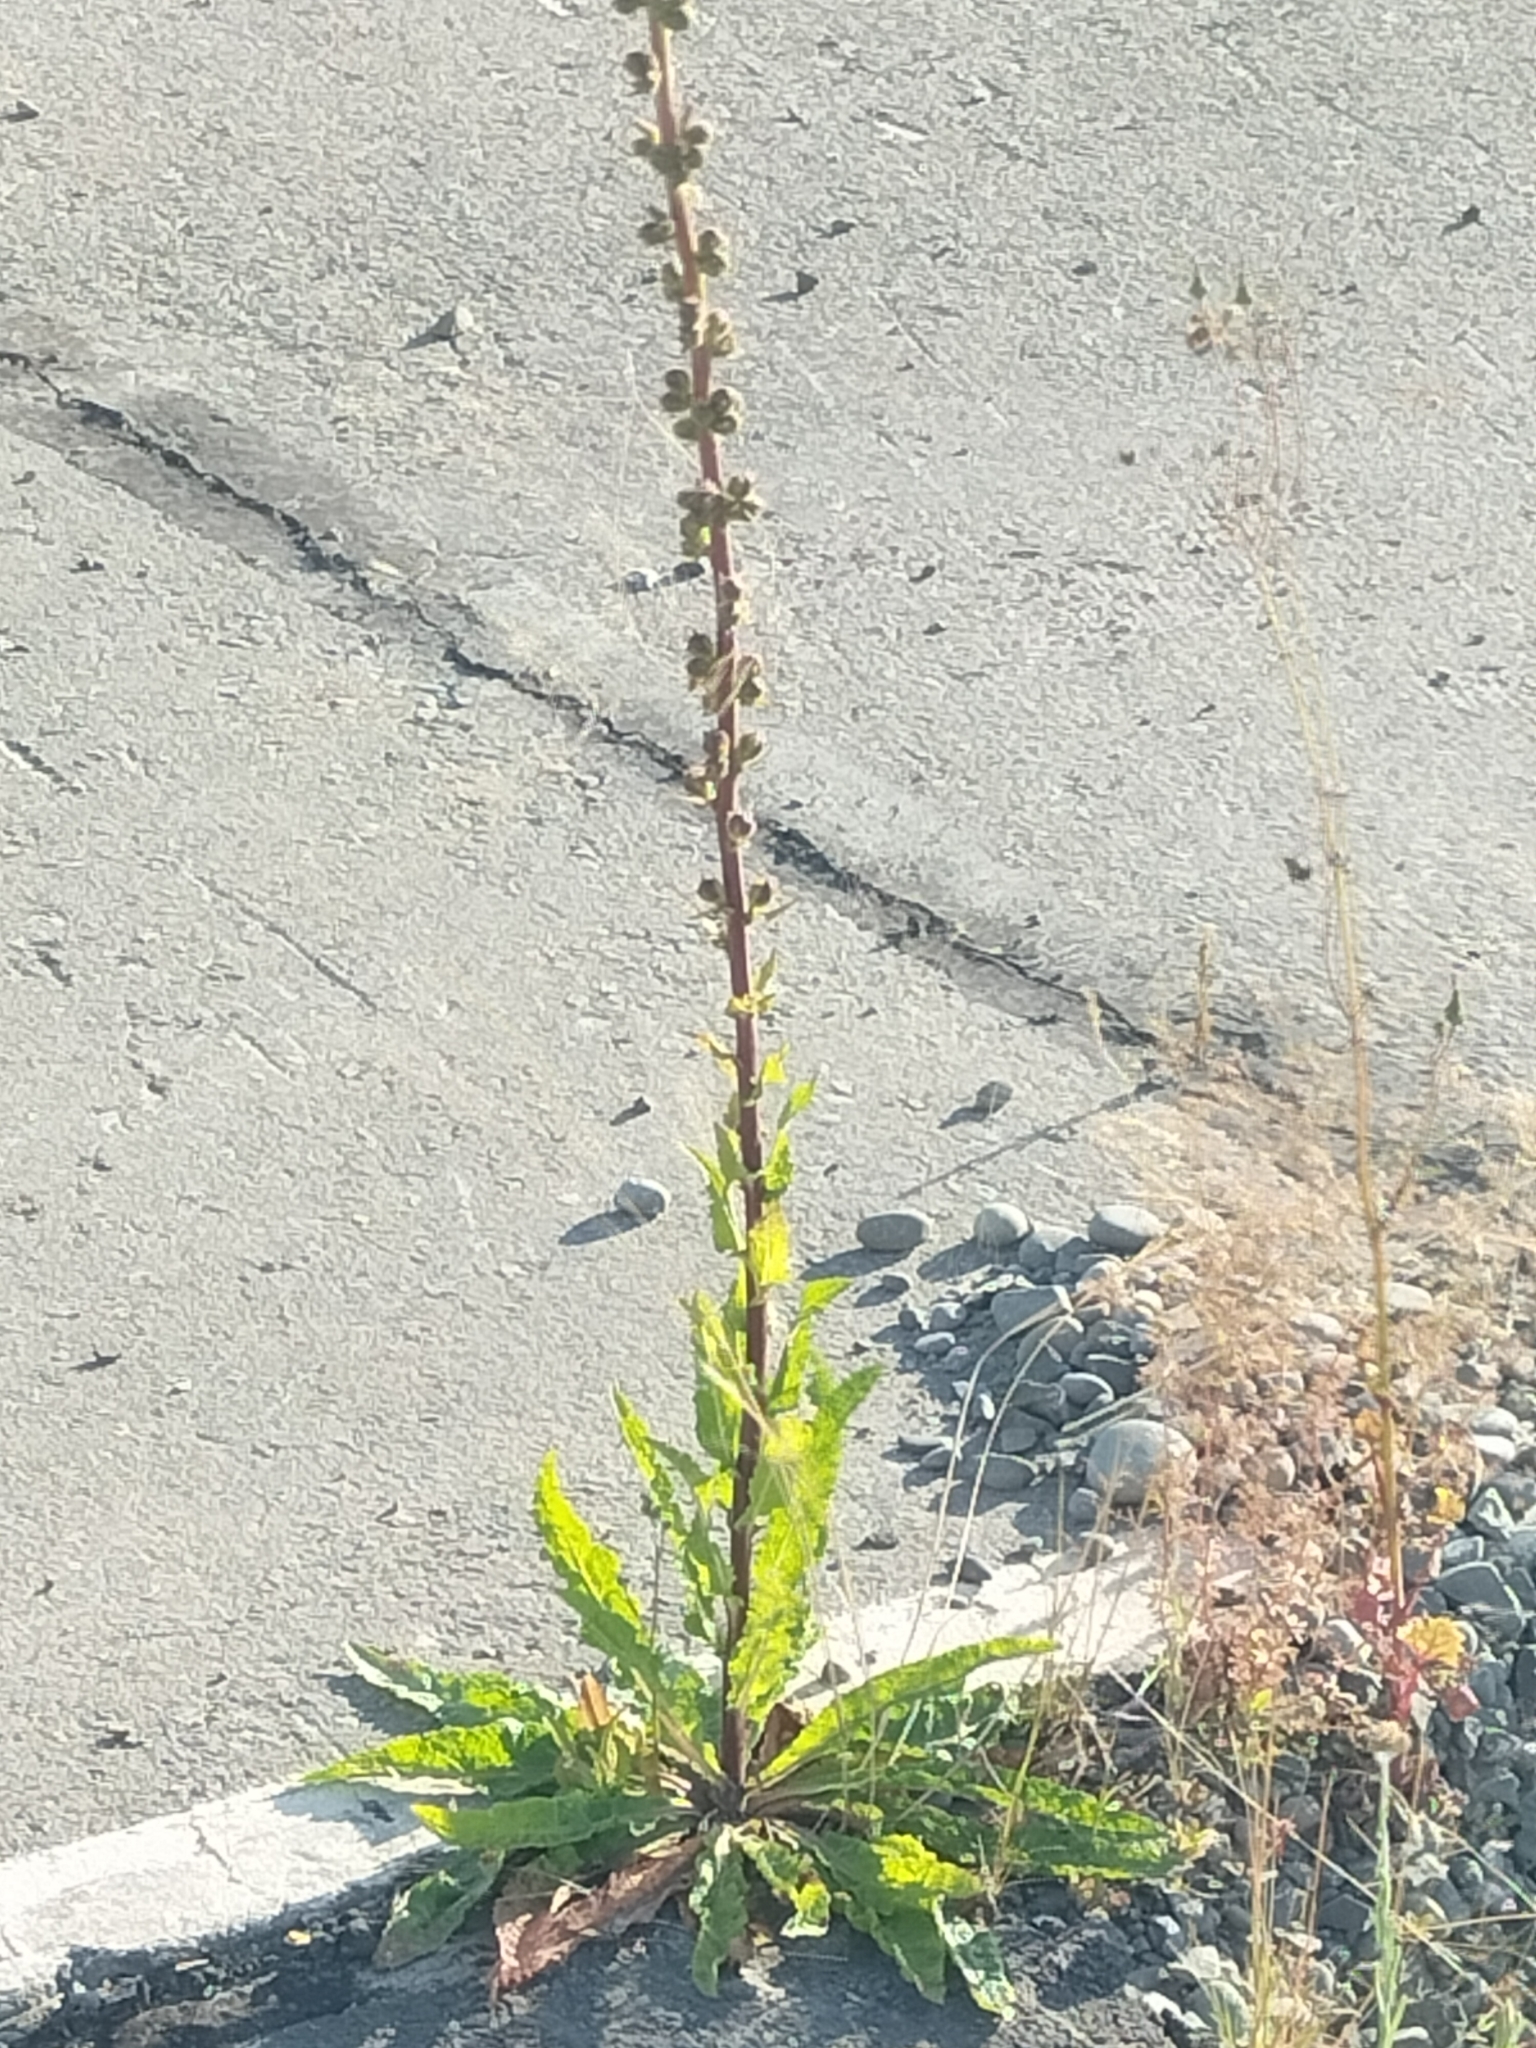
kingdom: Plantae
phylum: Tracheophyta
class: Magnoliopsida
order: Lamiales
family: Scrophulariaceae
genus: Verbascum
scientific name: Verbascum virgatum
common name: Twiggy mullein
